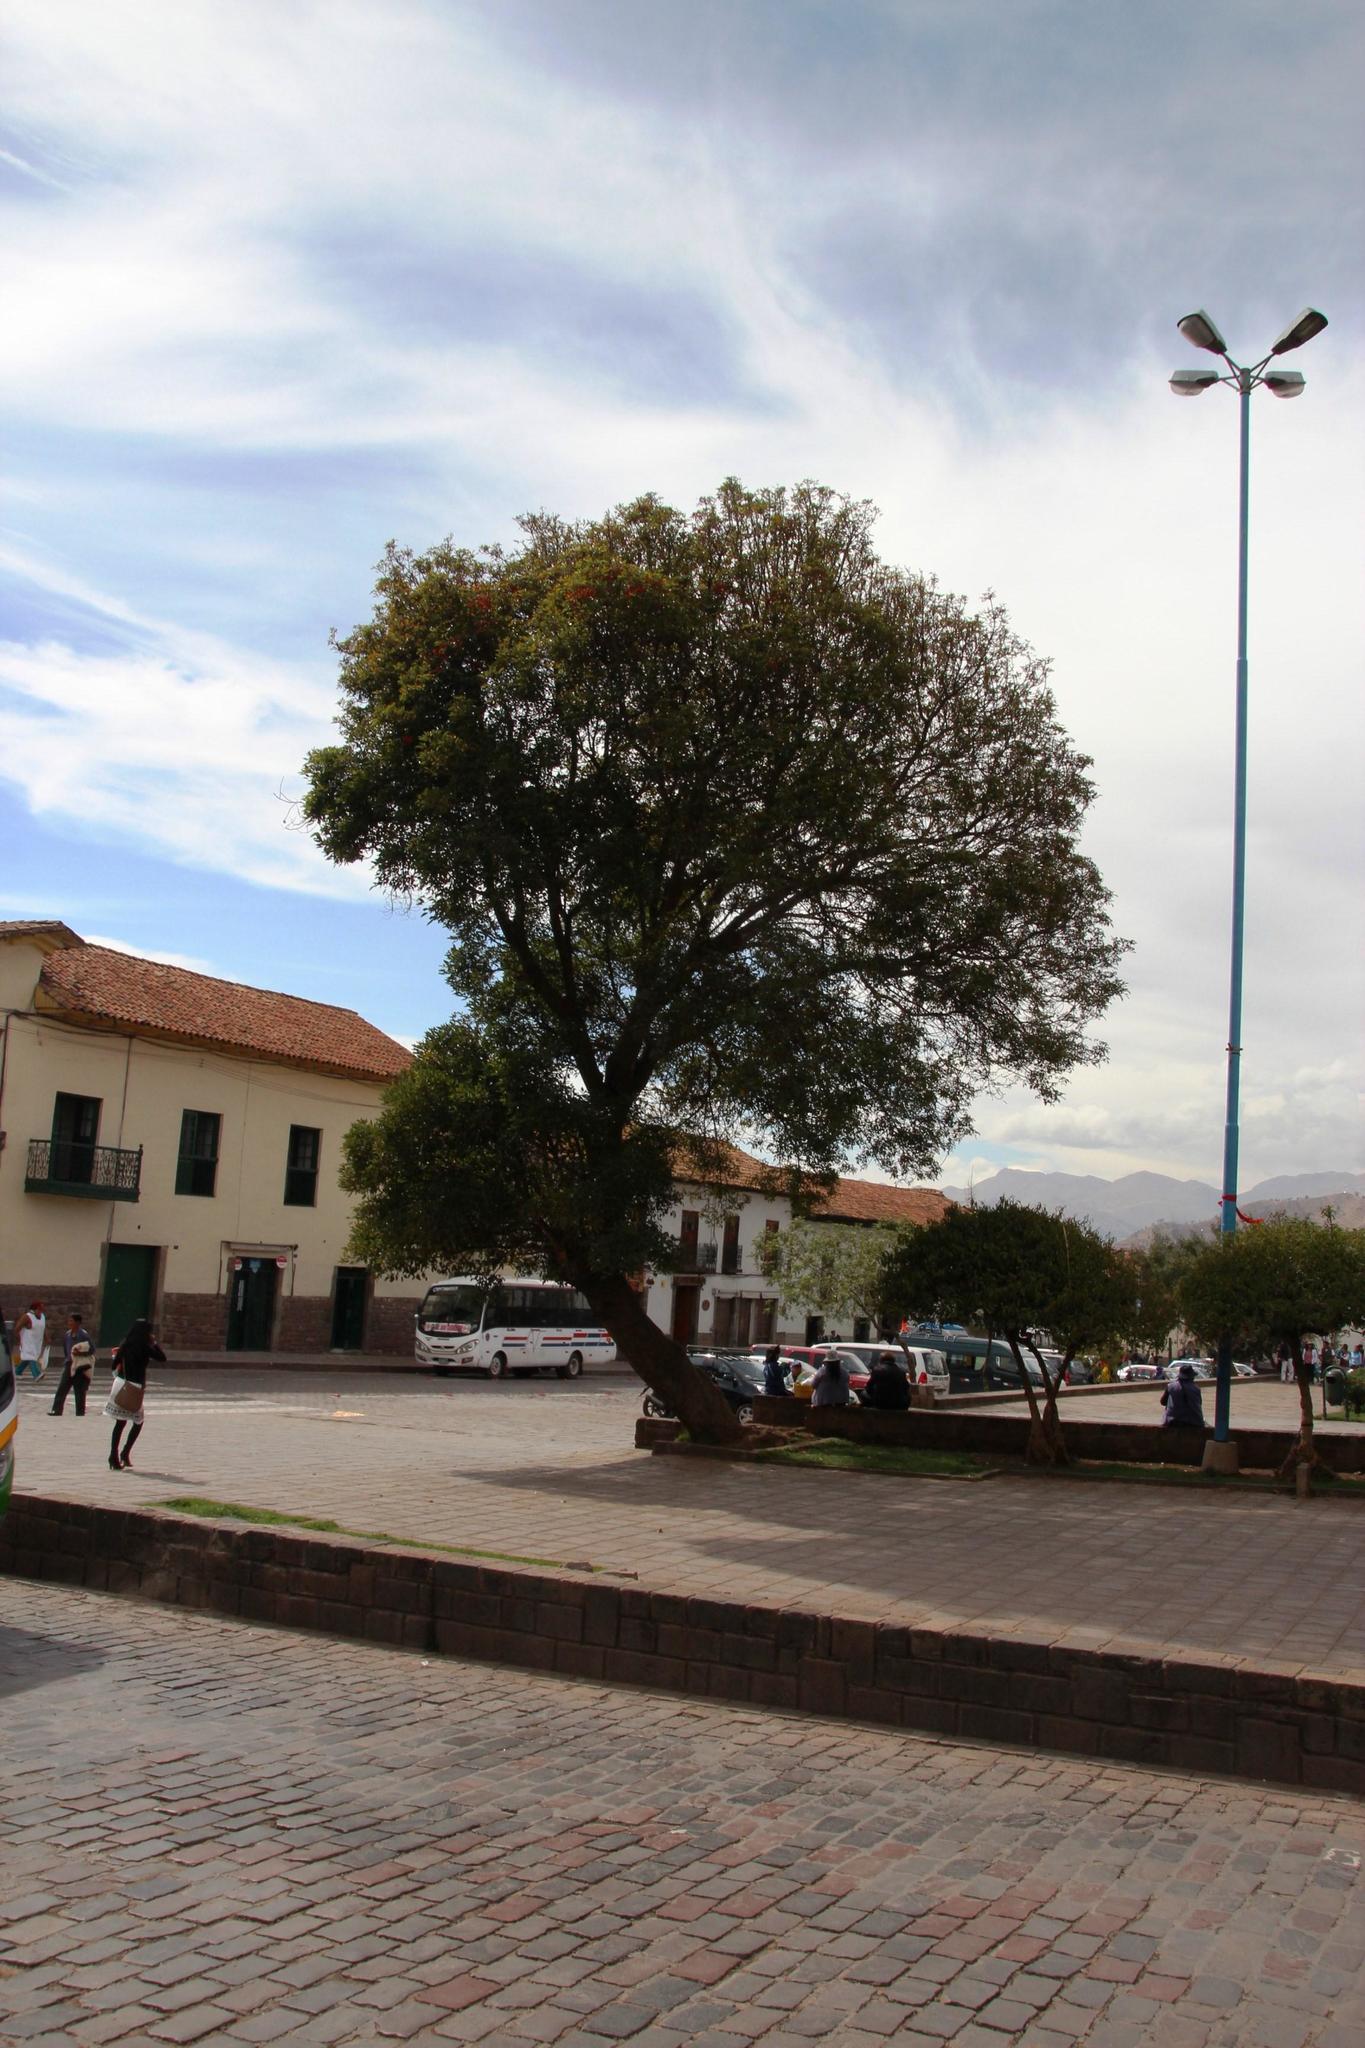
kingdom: Plantae
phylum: Tracheophyta
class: Magnoliopsida
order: Fabales
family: Fabaceae
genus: Erythrina
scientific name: Erythrina falcata
